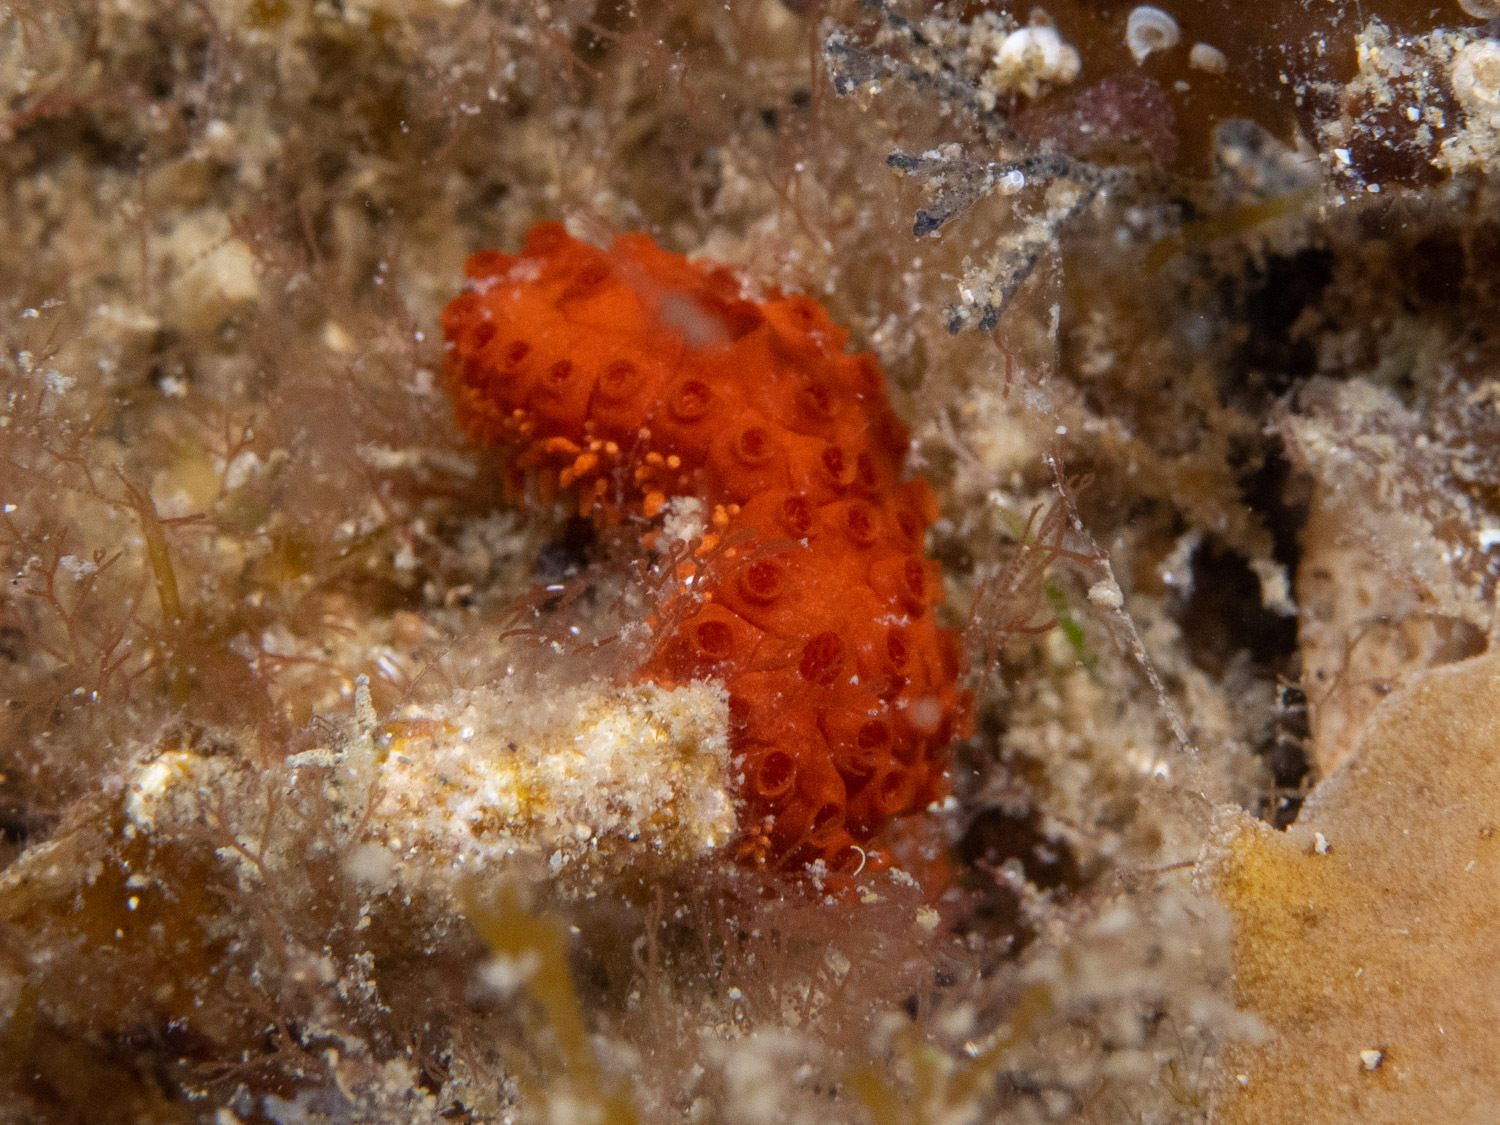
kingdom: Animalia
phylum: Chordata
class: Ascidiacea
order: Stolidobranchia
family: Styelidae
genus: Botrylloides
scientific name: Botrylloides violaceus
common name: Colonial sea squirt
